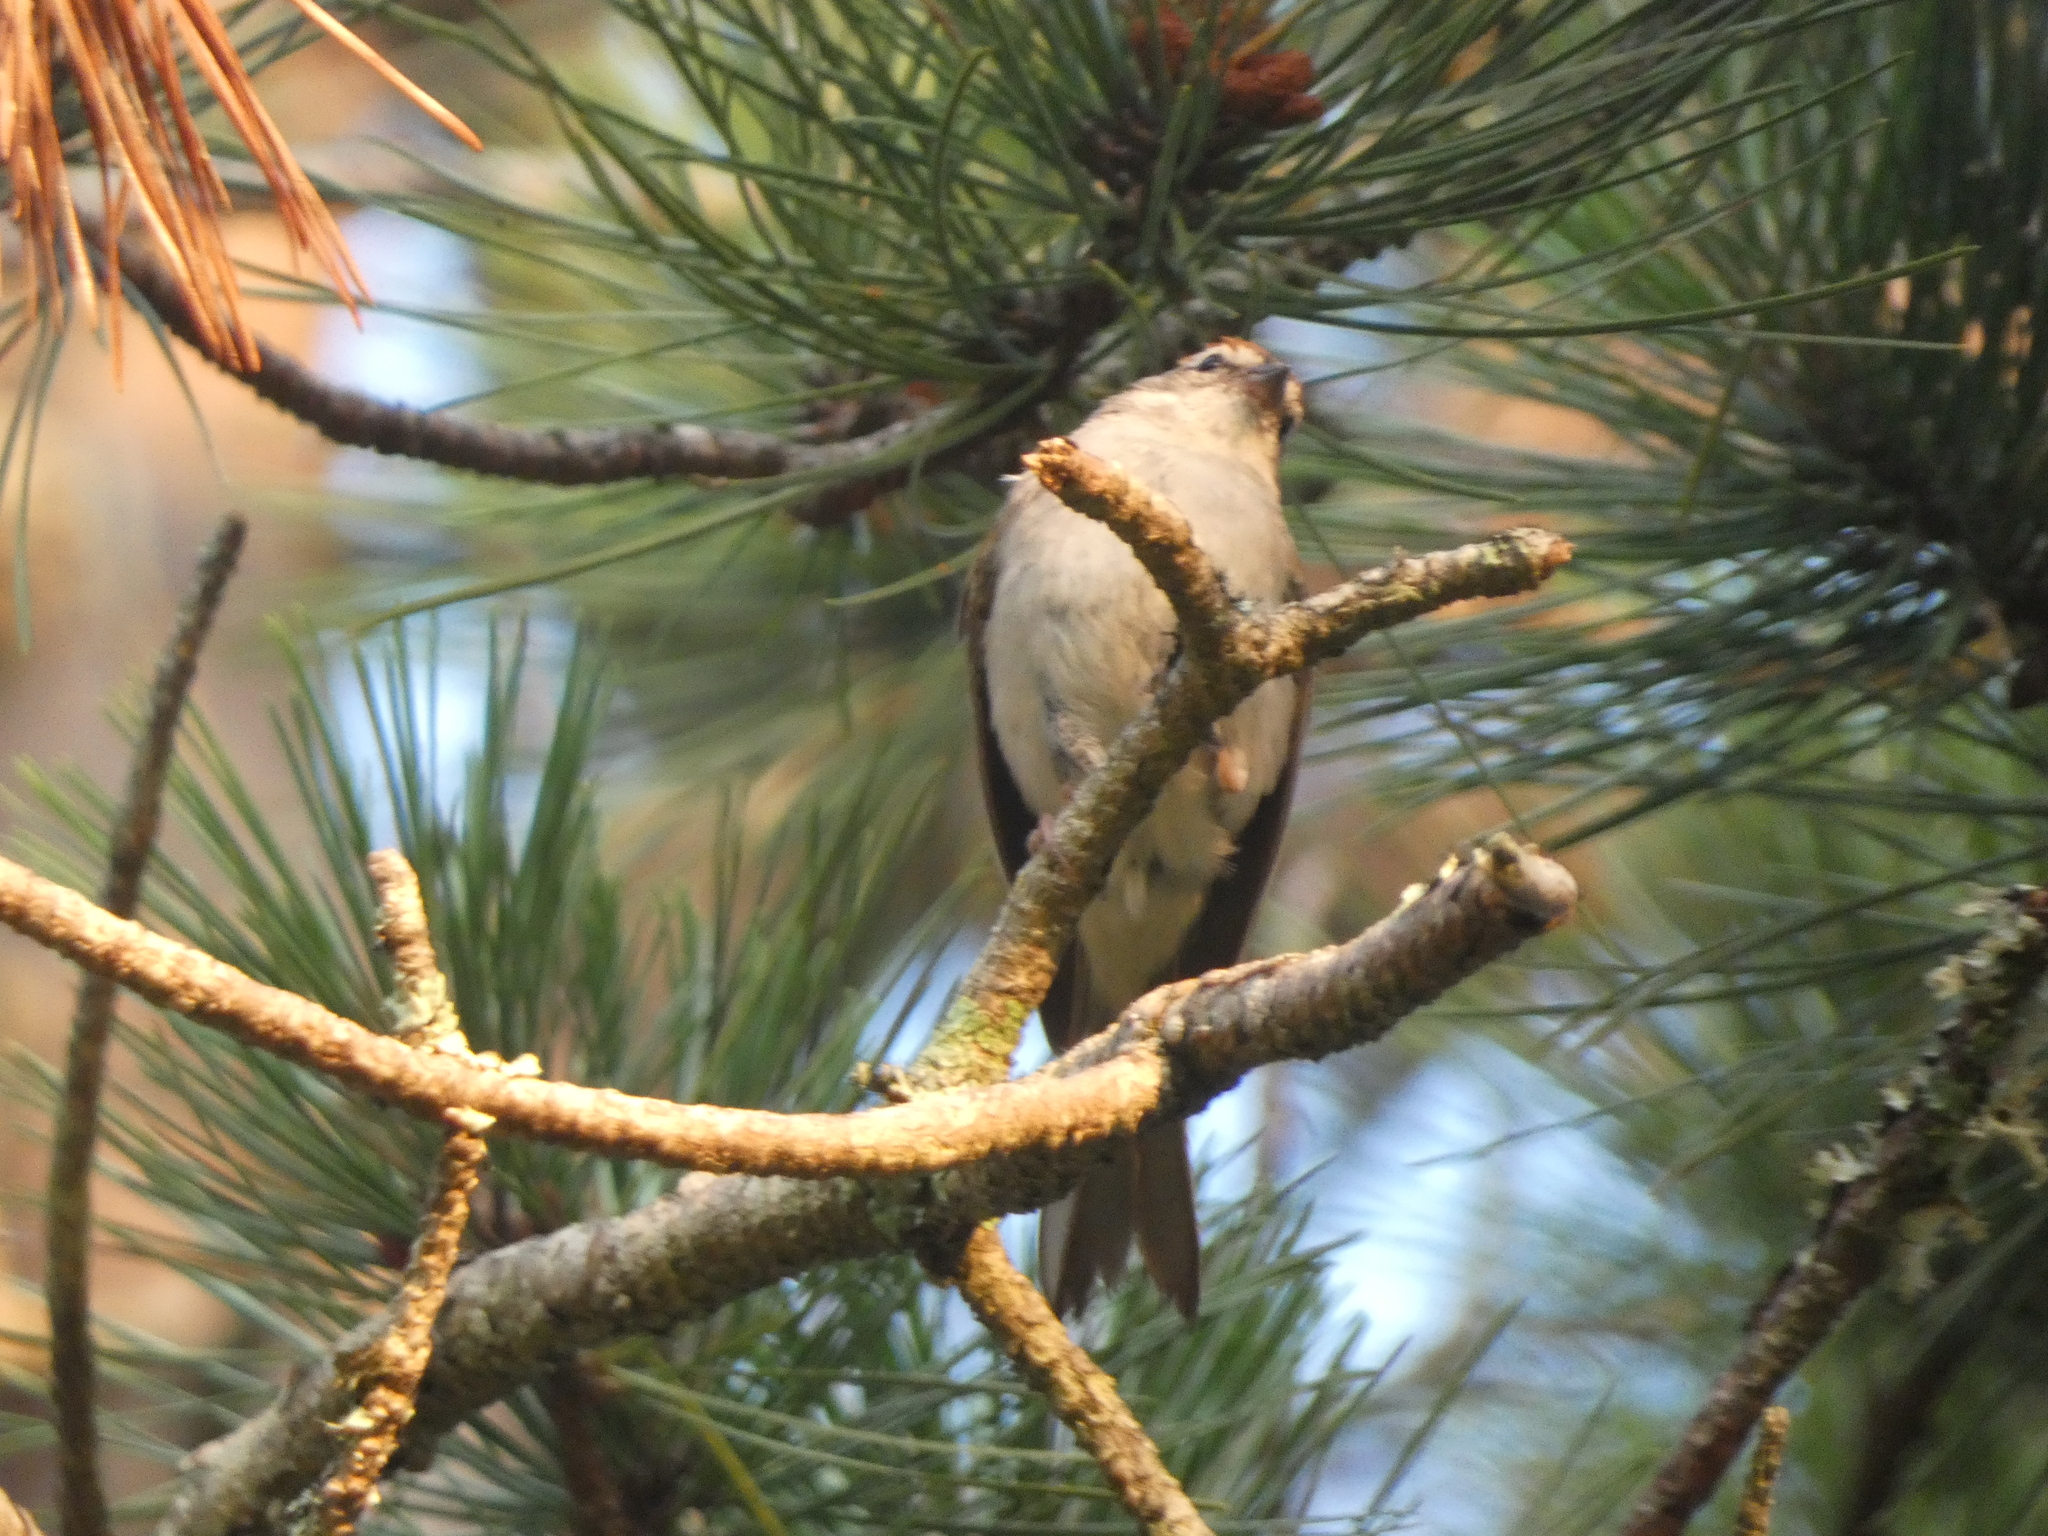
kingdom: Animalia
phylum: Chordata
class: Aves
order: Passeriformes
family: Passerellidae
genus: Spizella
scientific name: Spizella passerina
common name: Chipping sparrow
